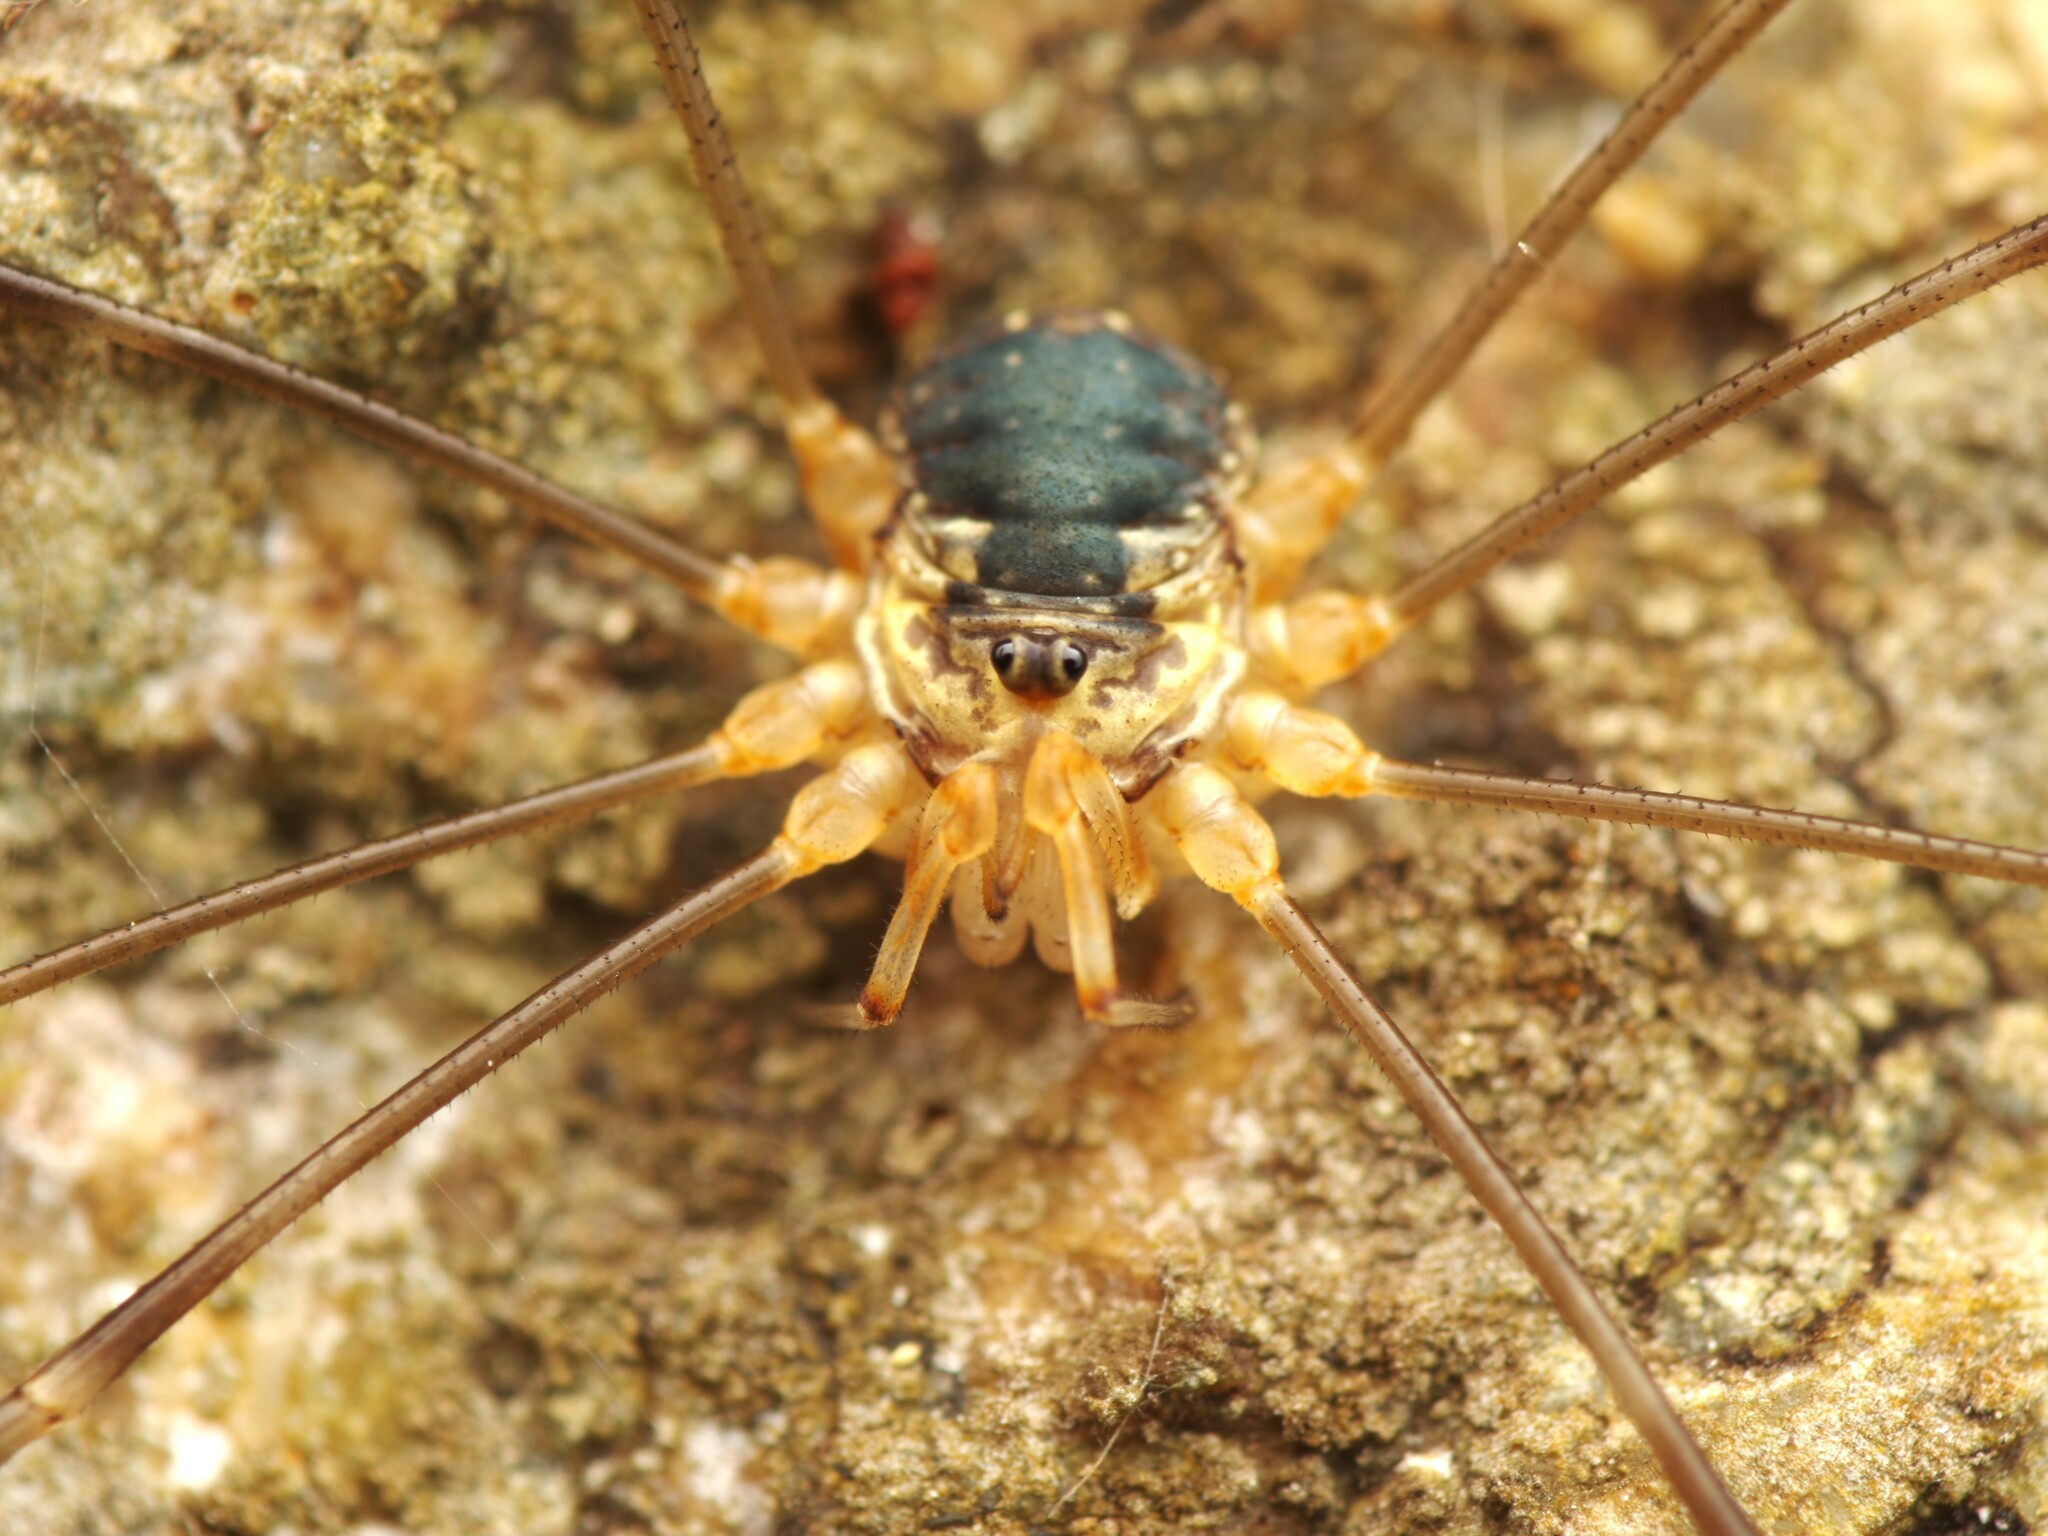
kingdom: Animalia
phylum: Arthropoda
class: Arachnida
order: Opiliones
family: Phalangiidae
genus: Dicranopalpus
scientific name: Dicranopalpus catariegensis
